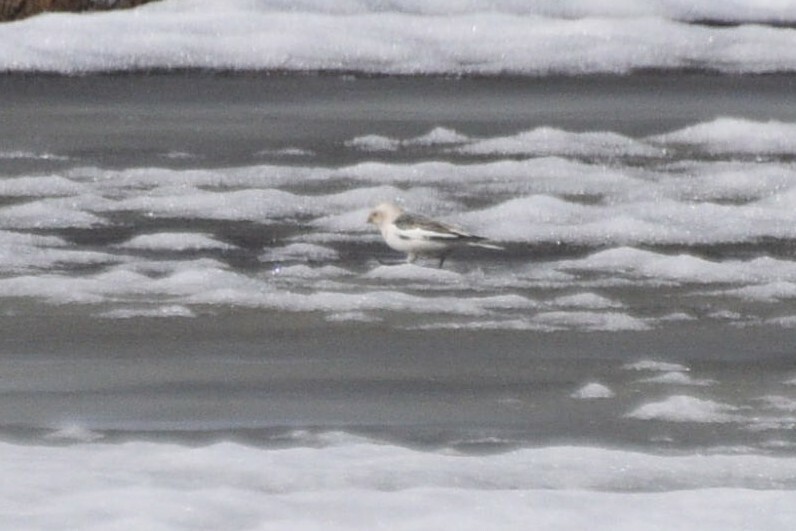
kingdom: Animalia
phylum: Chordata
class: Aves
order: Passeriformes
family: Calcariidae
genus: Plectrophenax
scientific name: Plectrophenax nivalis
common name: Snow bunting
